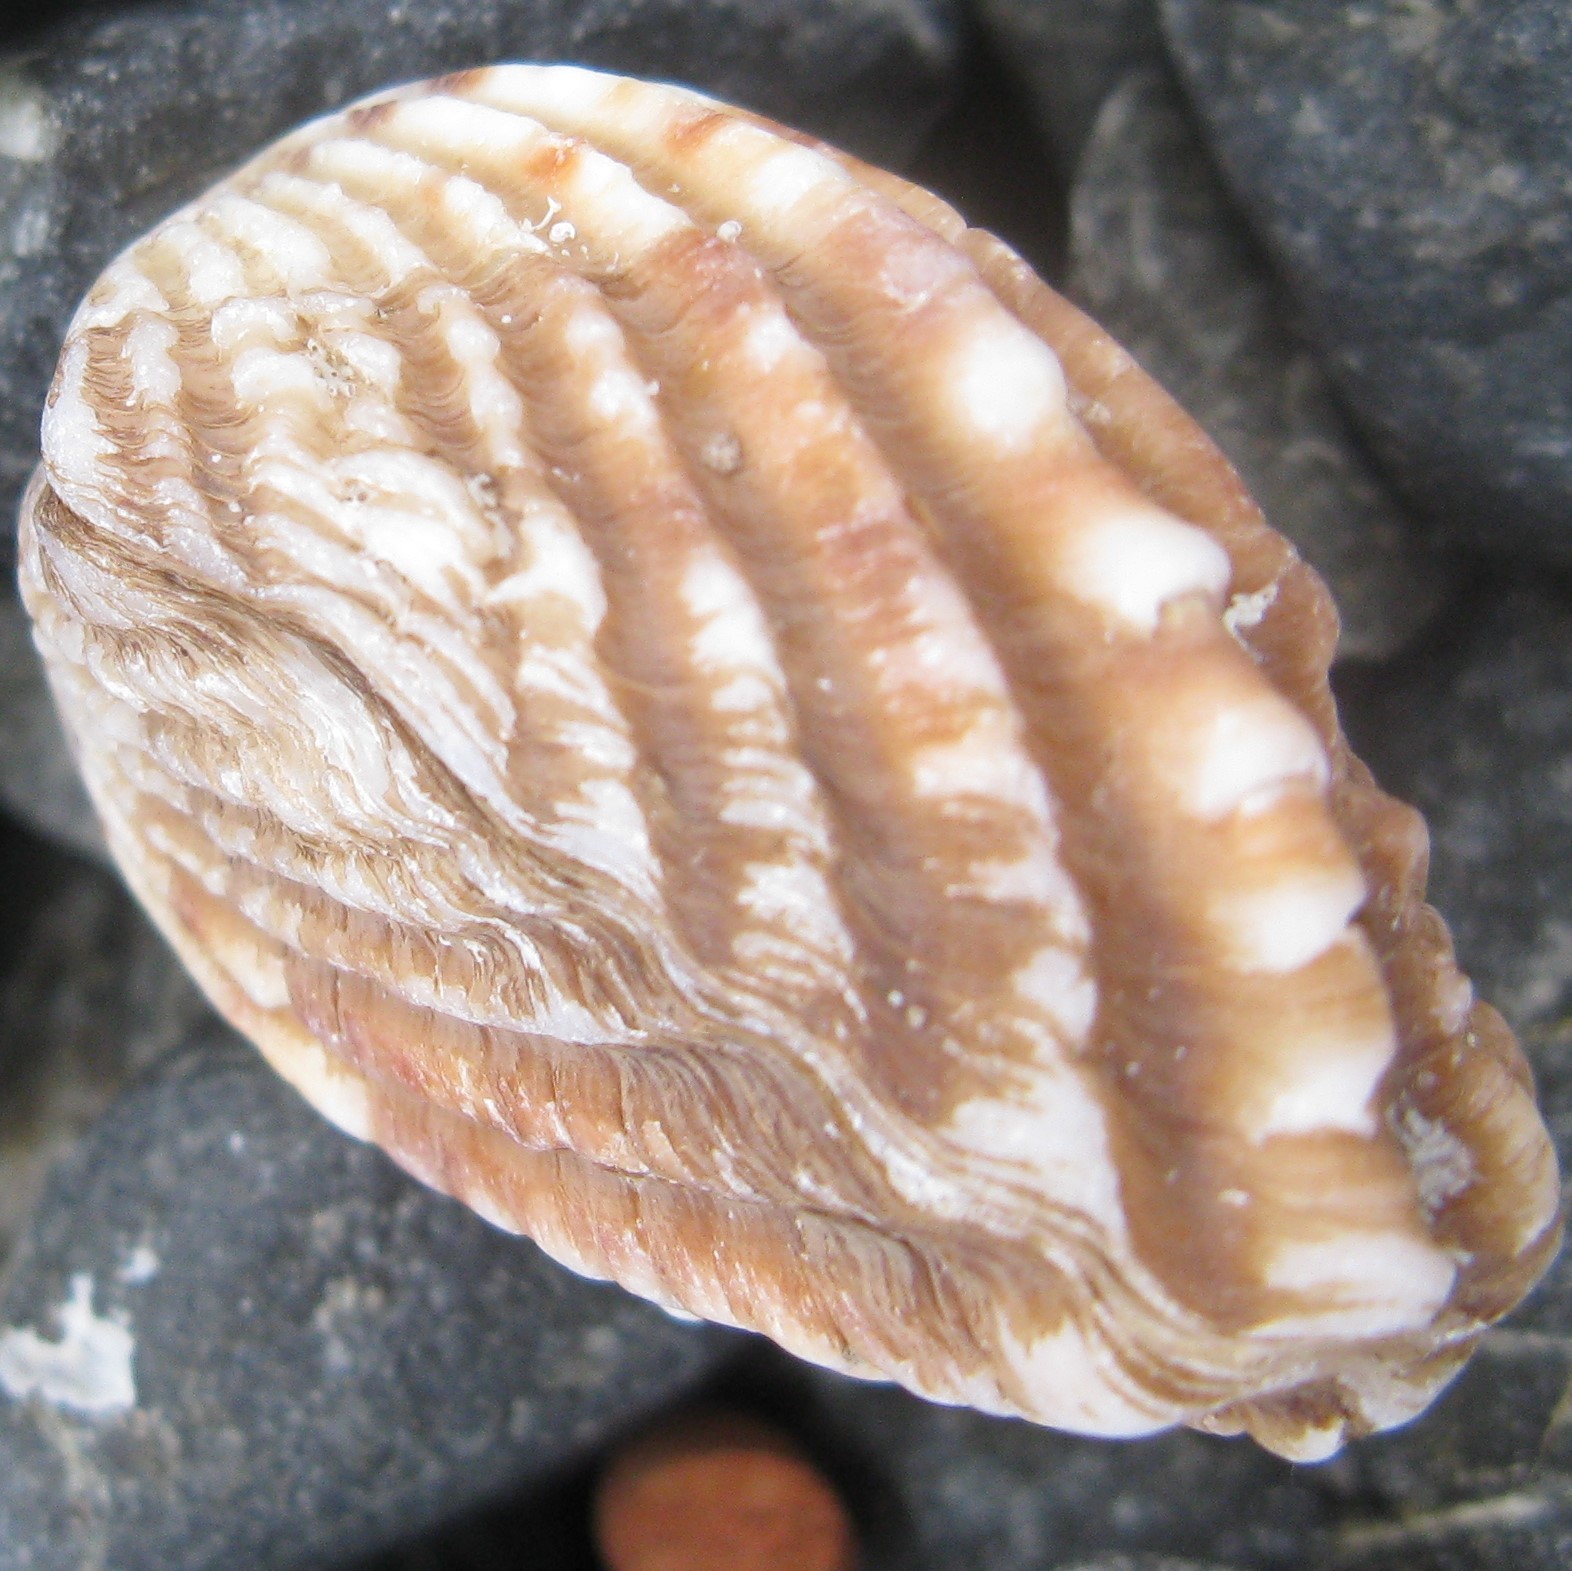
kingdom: Animalia
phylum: Mollusca
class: Bivalvia
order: Carditida
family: Carditidae
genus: Cardita
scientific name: Cardita distorta
